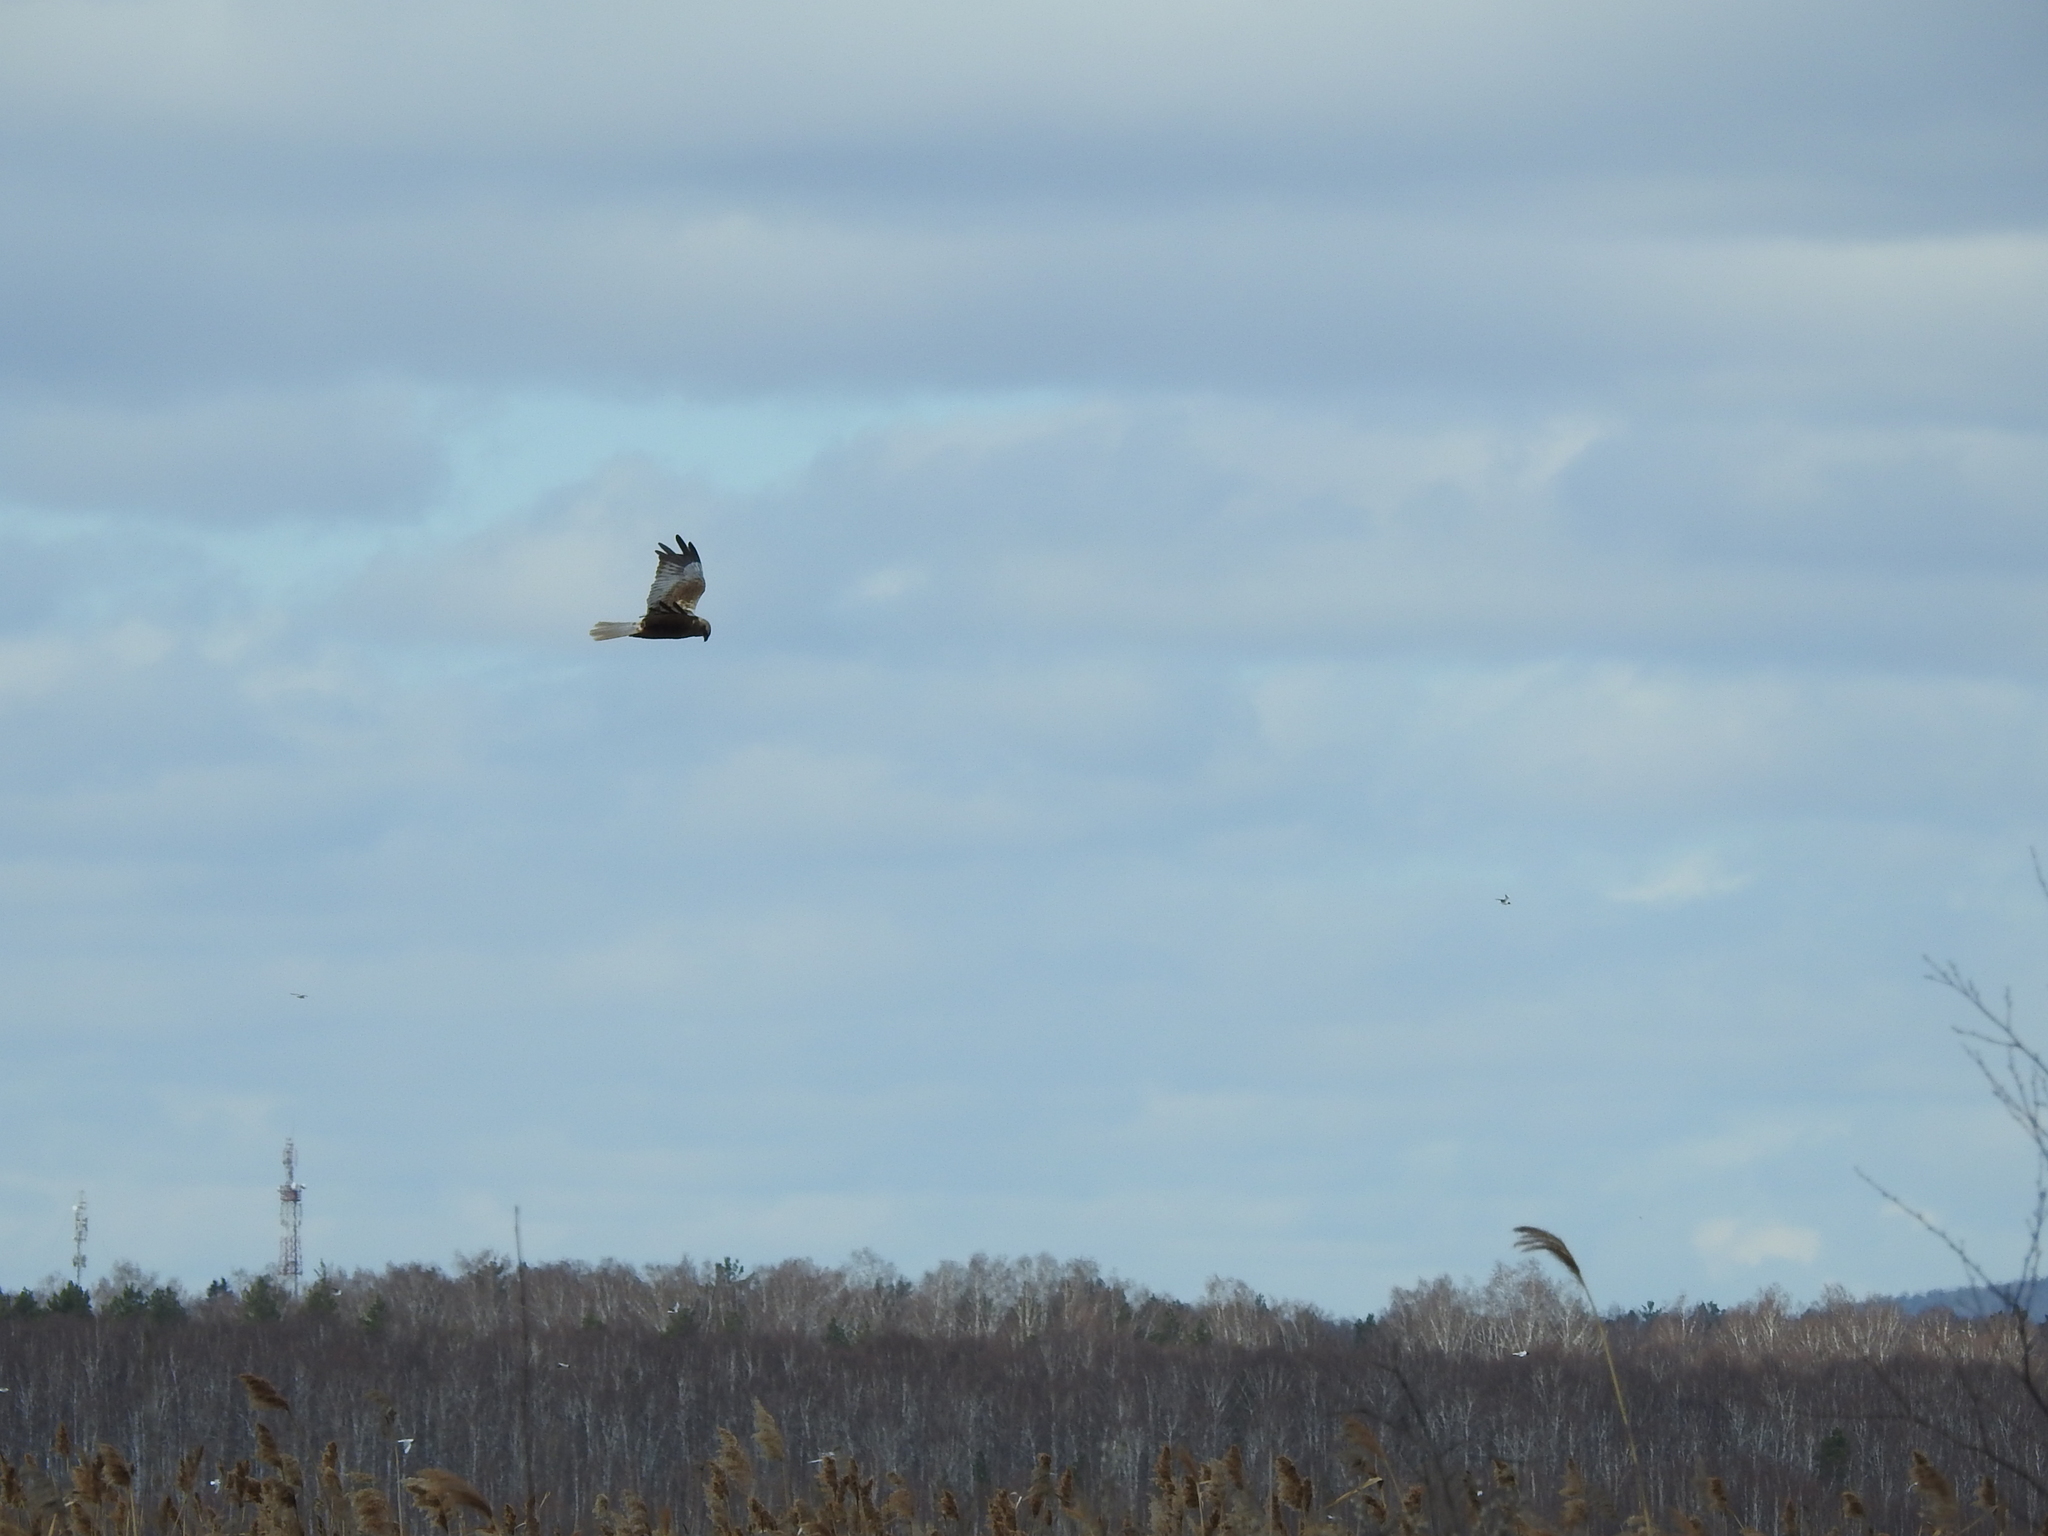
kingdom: Animalia
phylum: Chordata
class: Aves
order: Accipitriformes
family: Accipitridae
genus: Circus
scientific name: Circus aeruginosus
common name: Western marsh harrier
